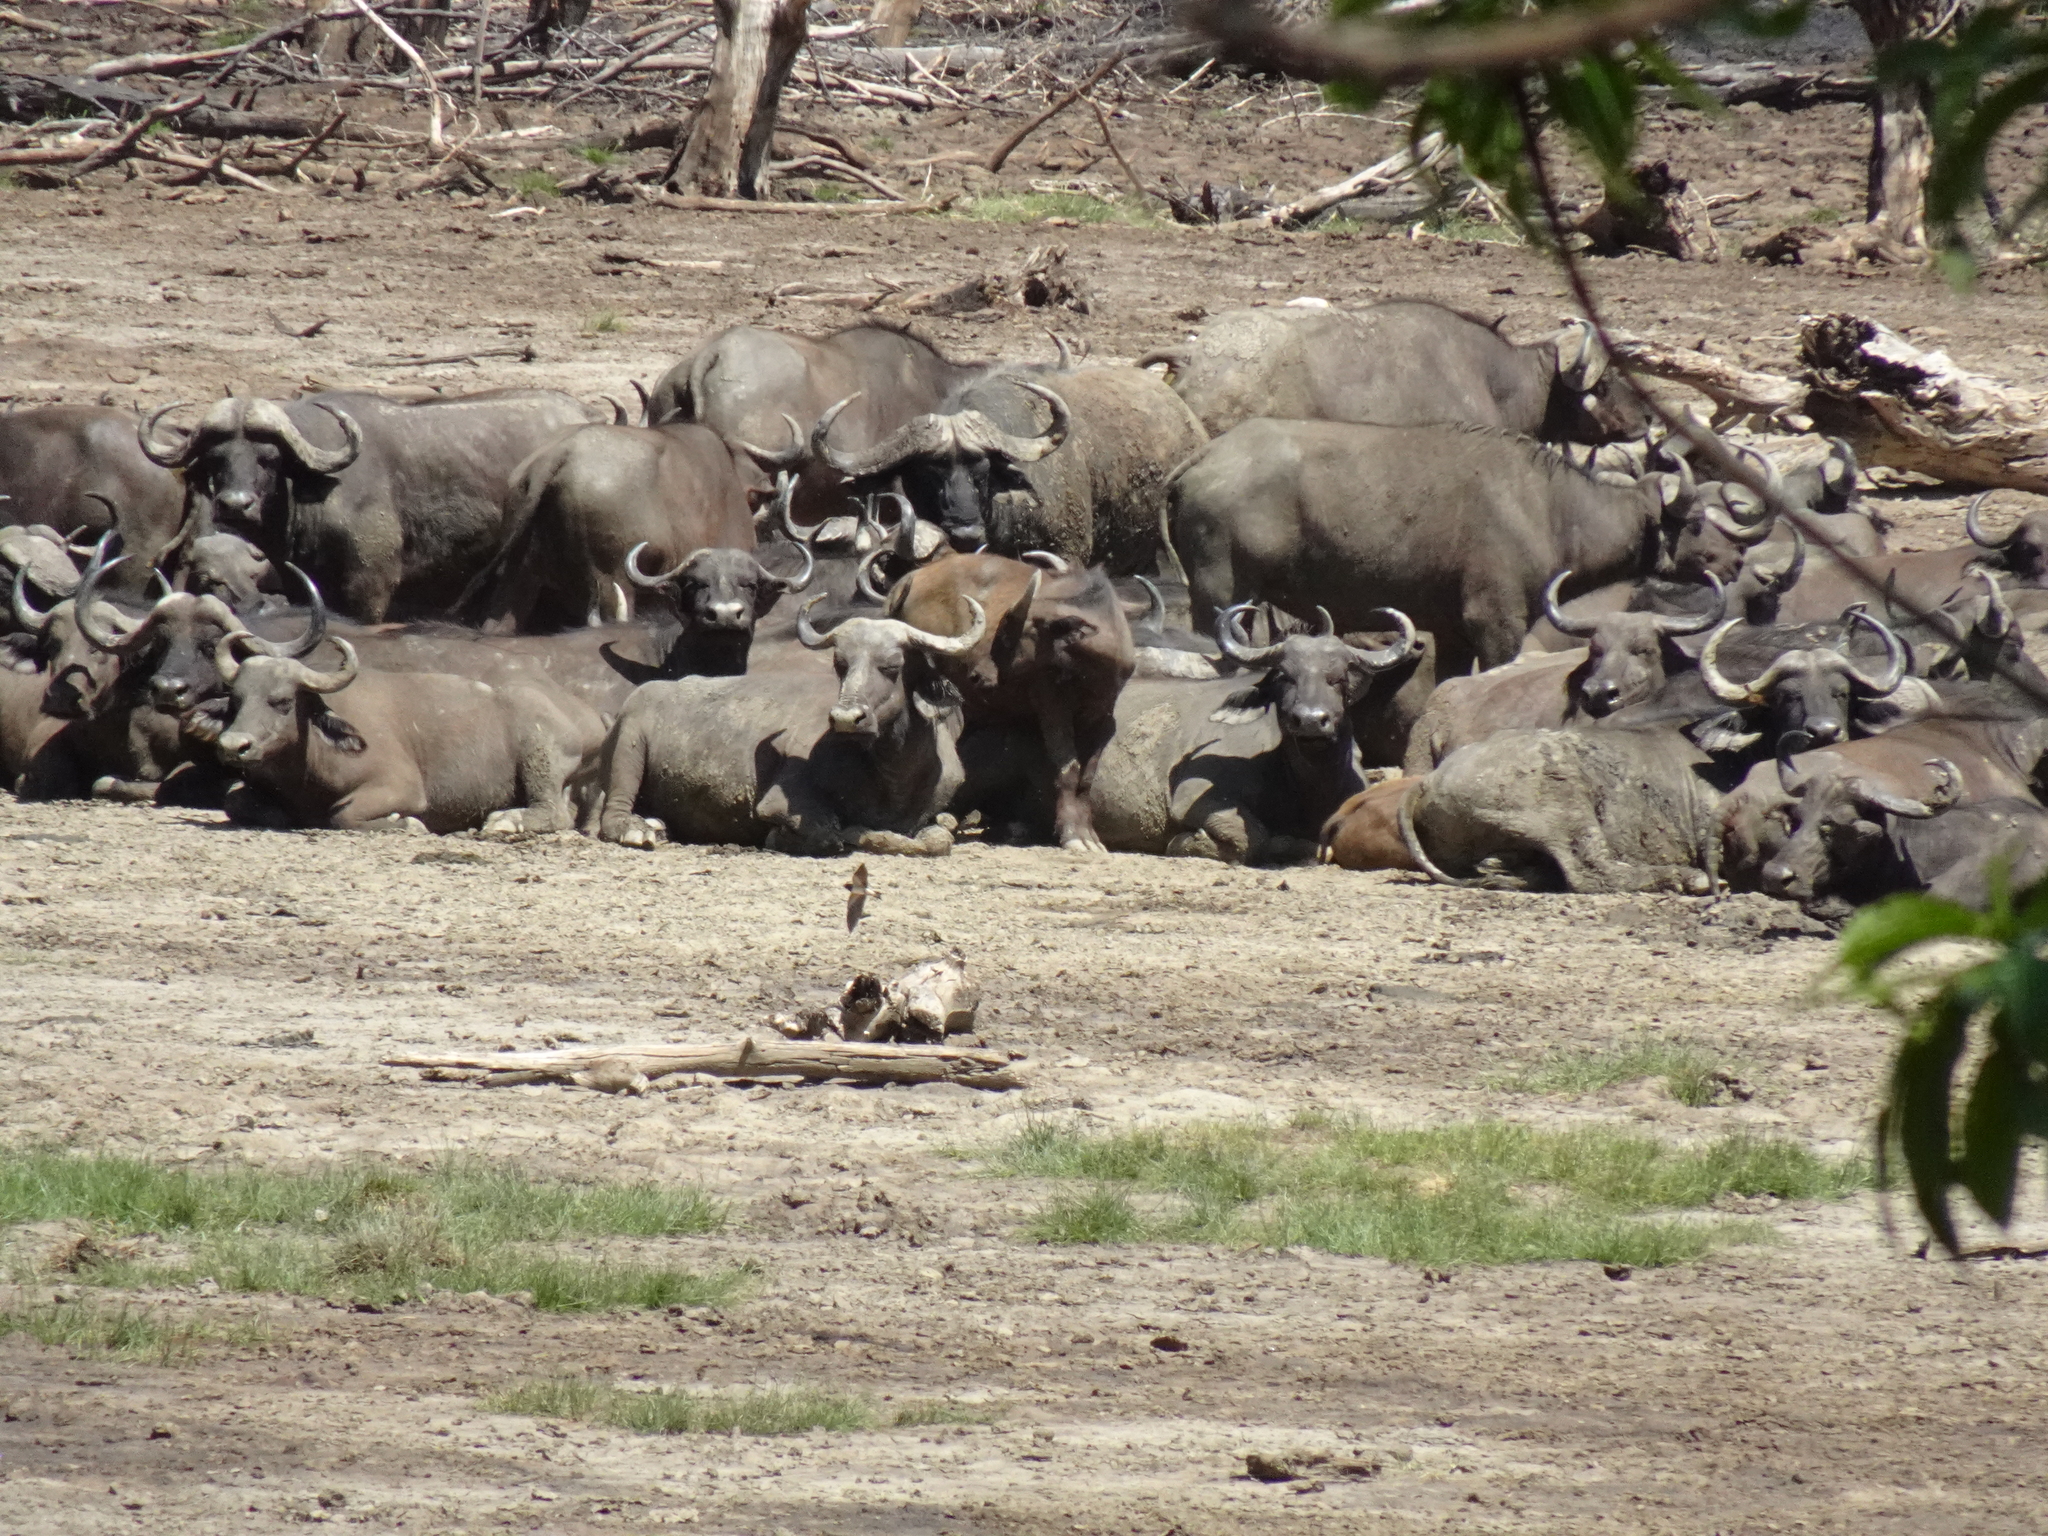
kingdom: Animalia
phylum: Chordata
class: Mammalia
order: Artiodactyla
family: Bovidae
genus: Syncerus
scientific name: Syncerus caffer
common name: African buffalo
